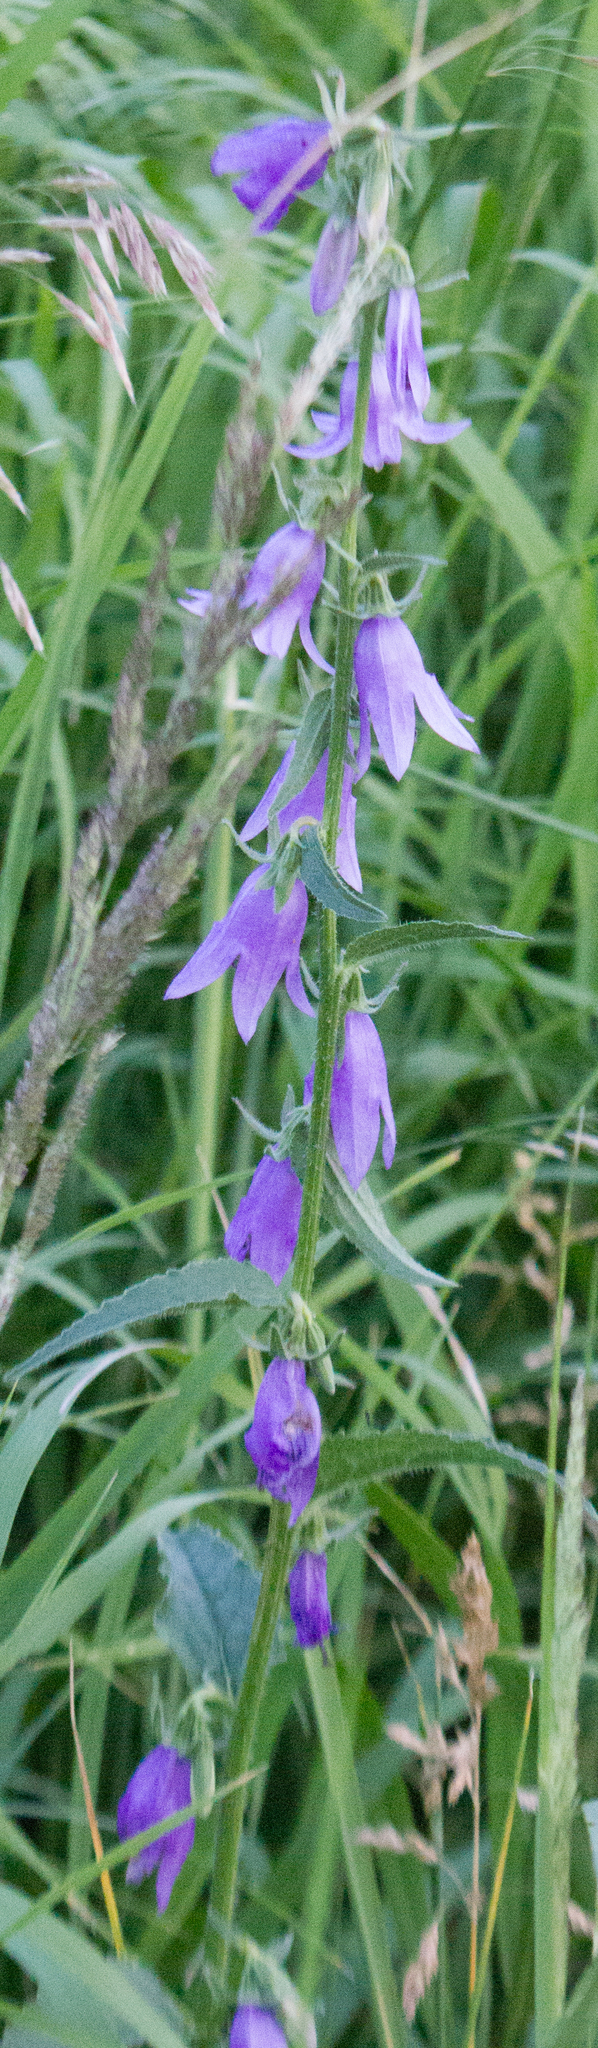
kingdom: Plantae
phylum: Tracheophyta
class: Magnoliopsida
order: Asterales
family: Campanulaceae
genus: Campanula
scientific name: Campanula rapunculoides
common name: Creeping bellflower
